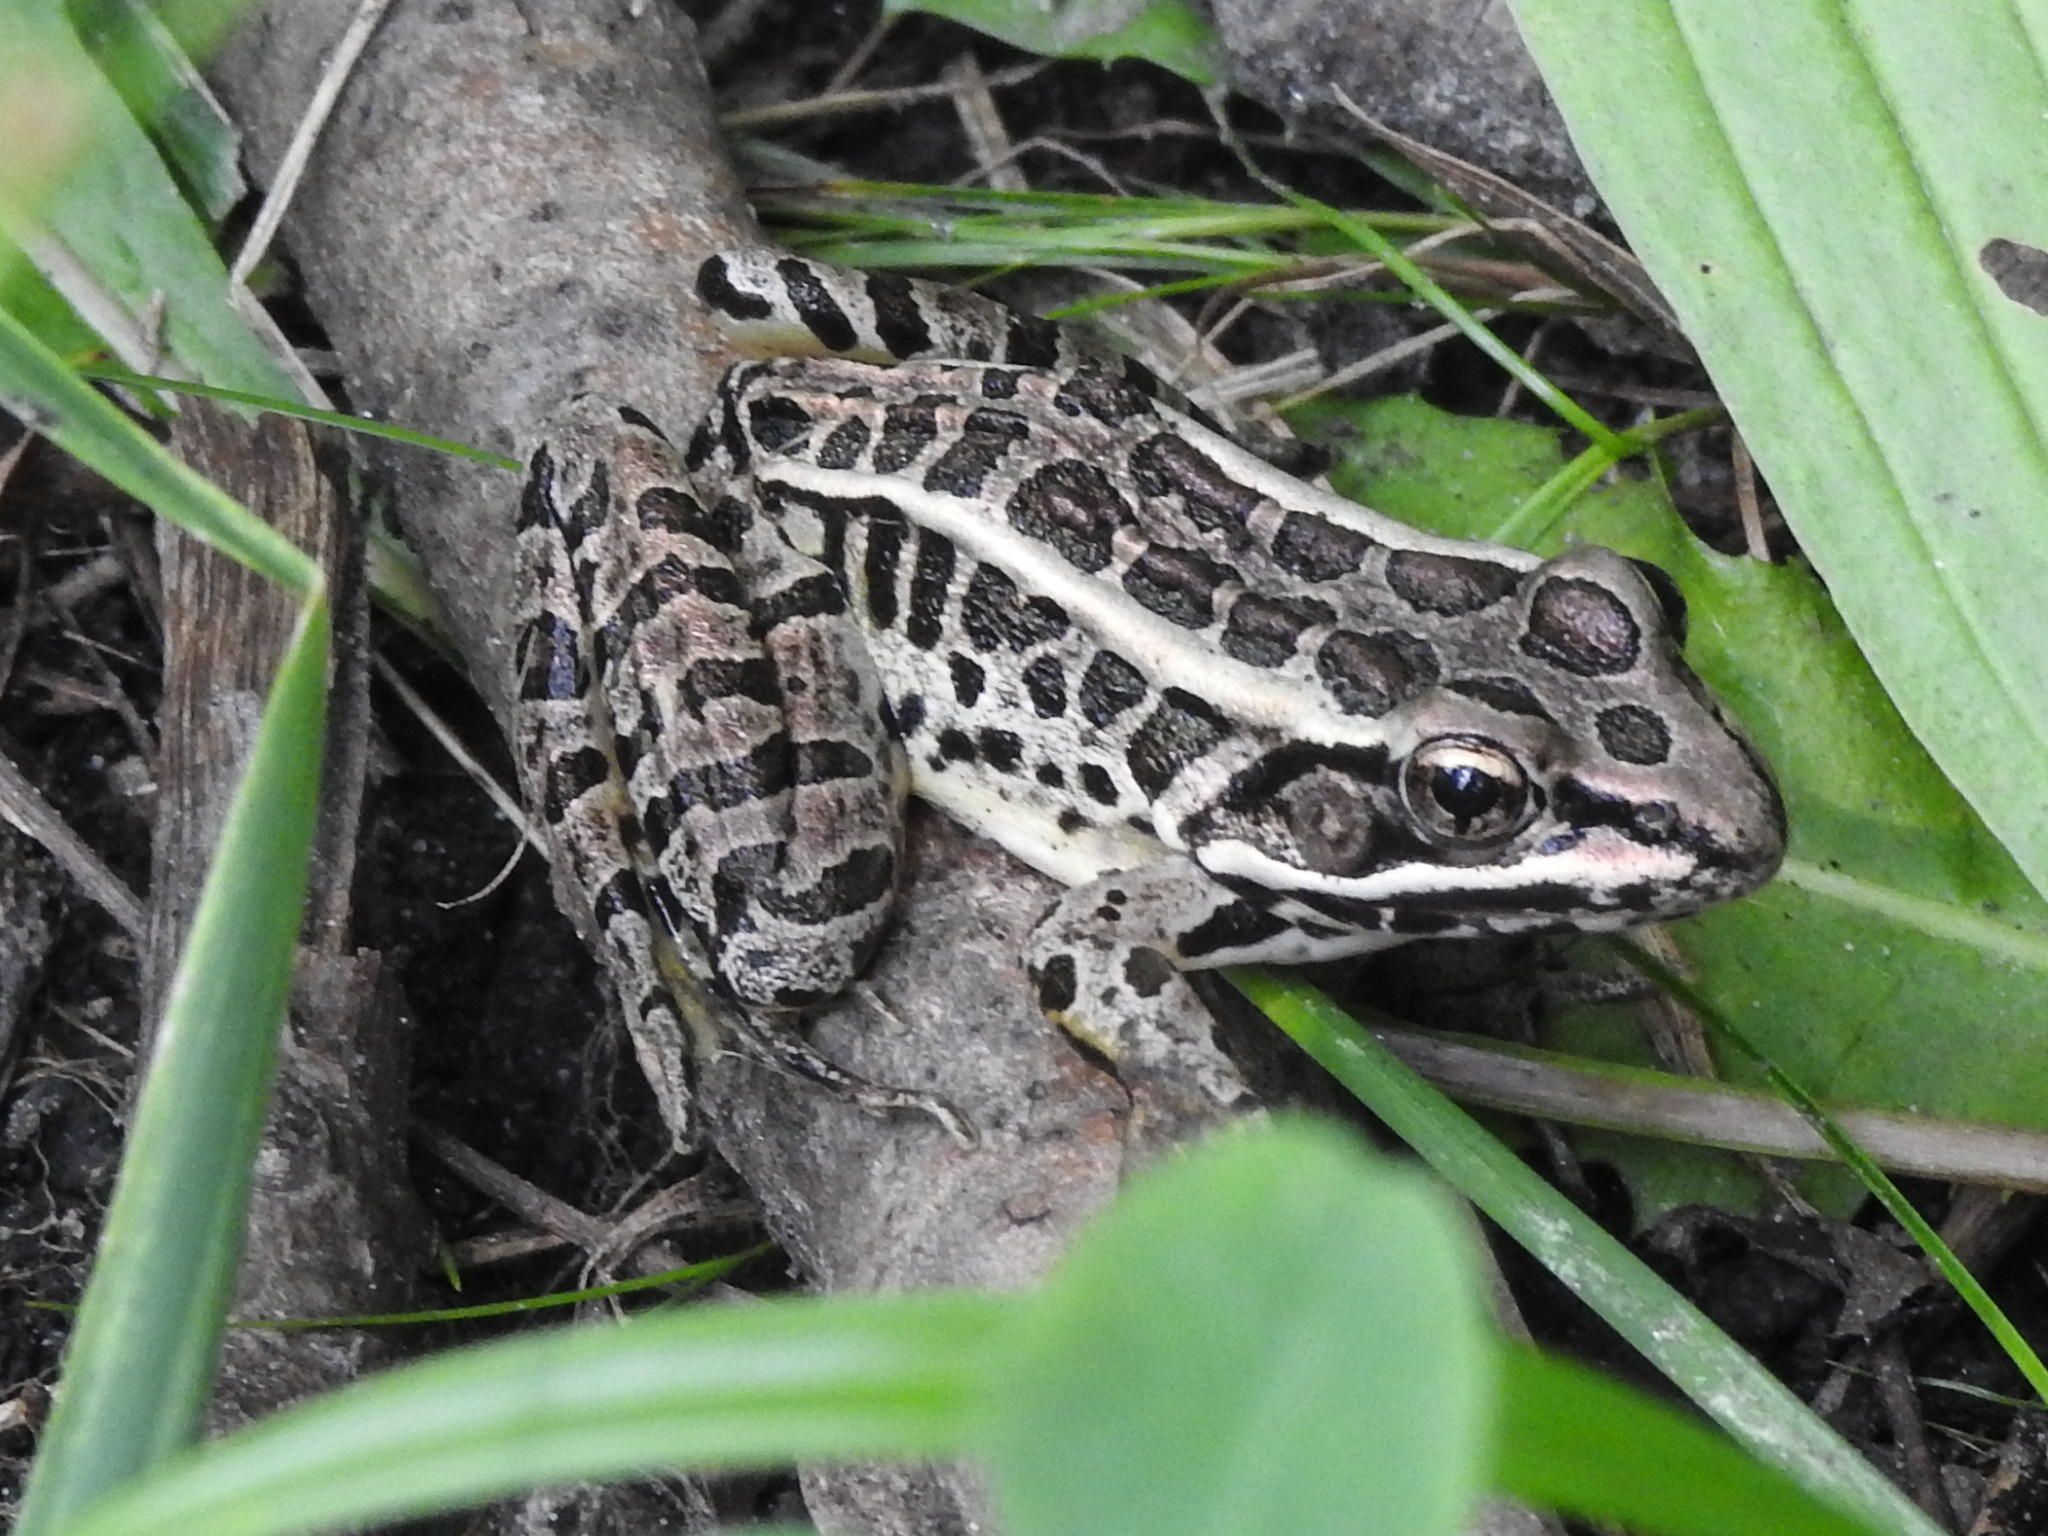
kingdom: Animalia
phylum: Chordata
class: Amphibia
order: Anura
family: Ranidae
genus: Lithobates
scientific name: Lithobates palustris
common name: Pickerel frog
